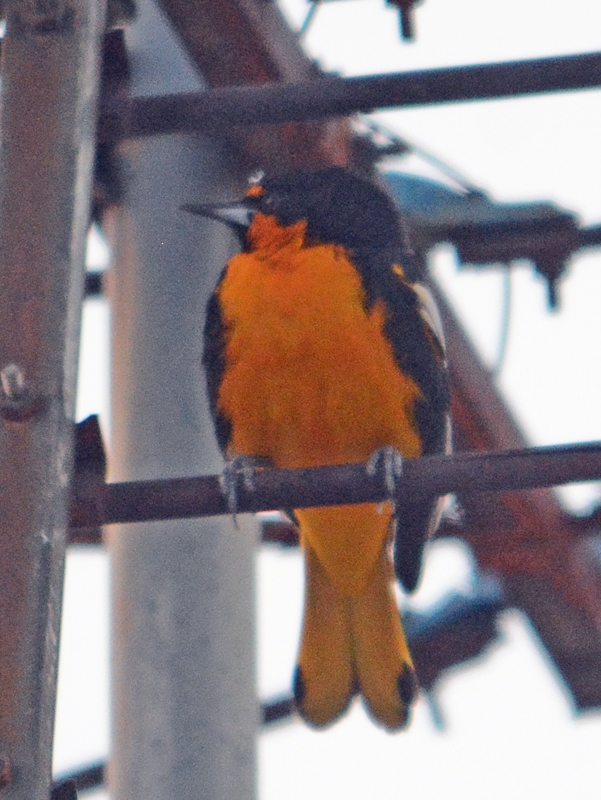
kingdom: Animalia
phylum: Chordata
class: Aves
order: Passeriformes
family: Icteridae
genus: Icterus
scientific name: Icterus abeillei
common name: Black-backed oriole
